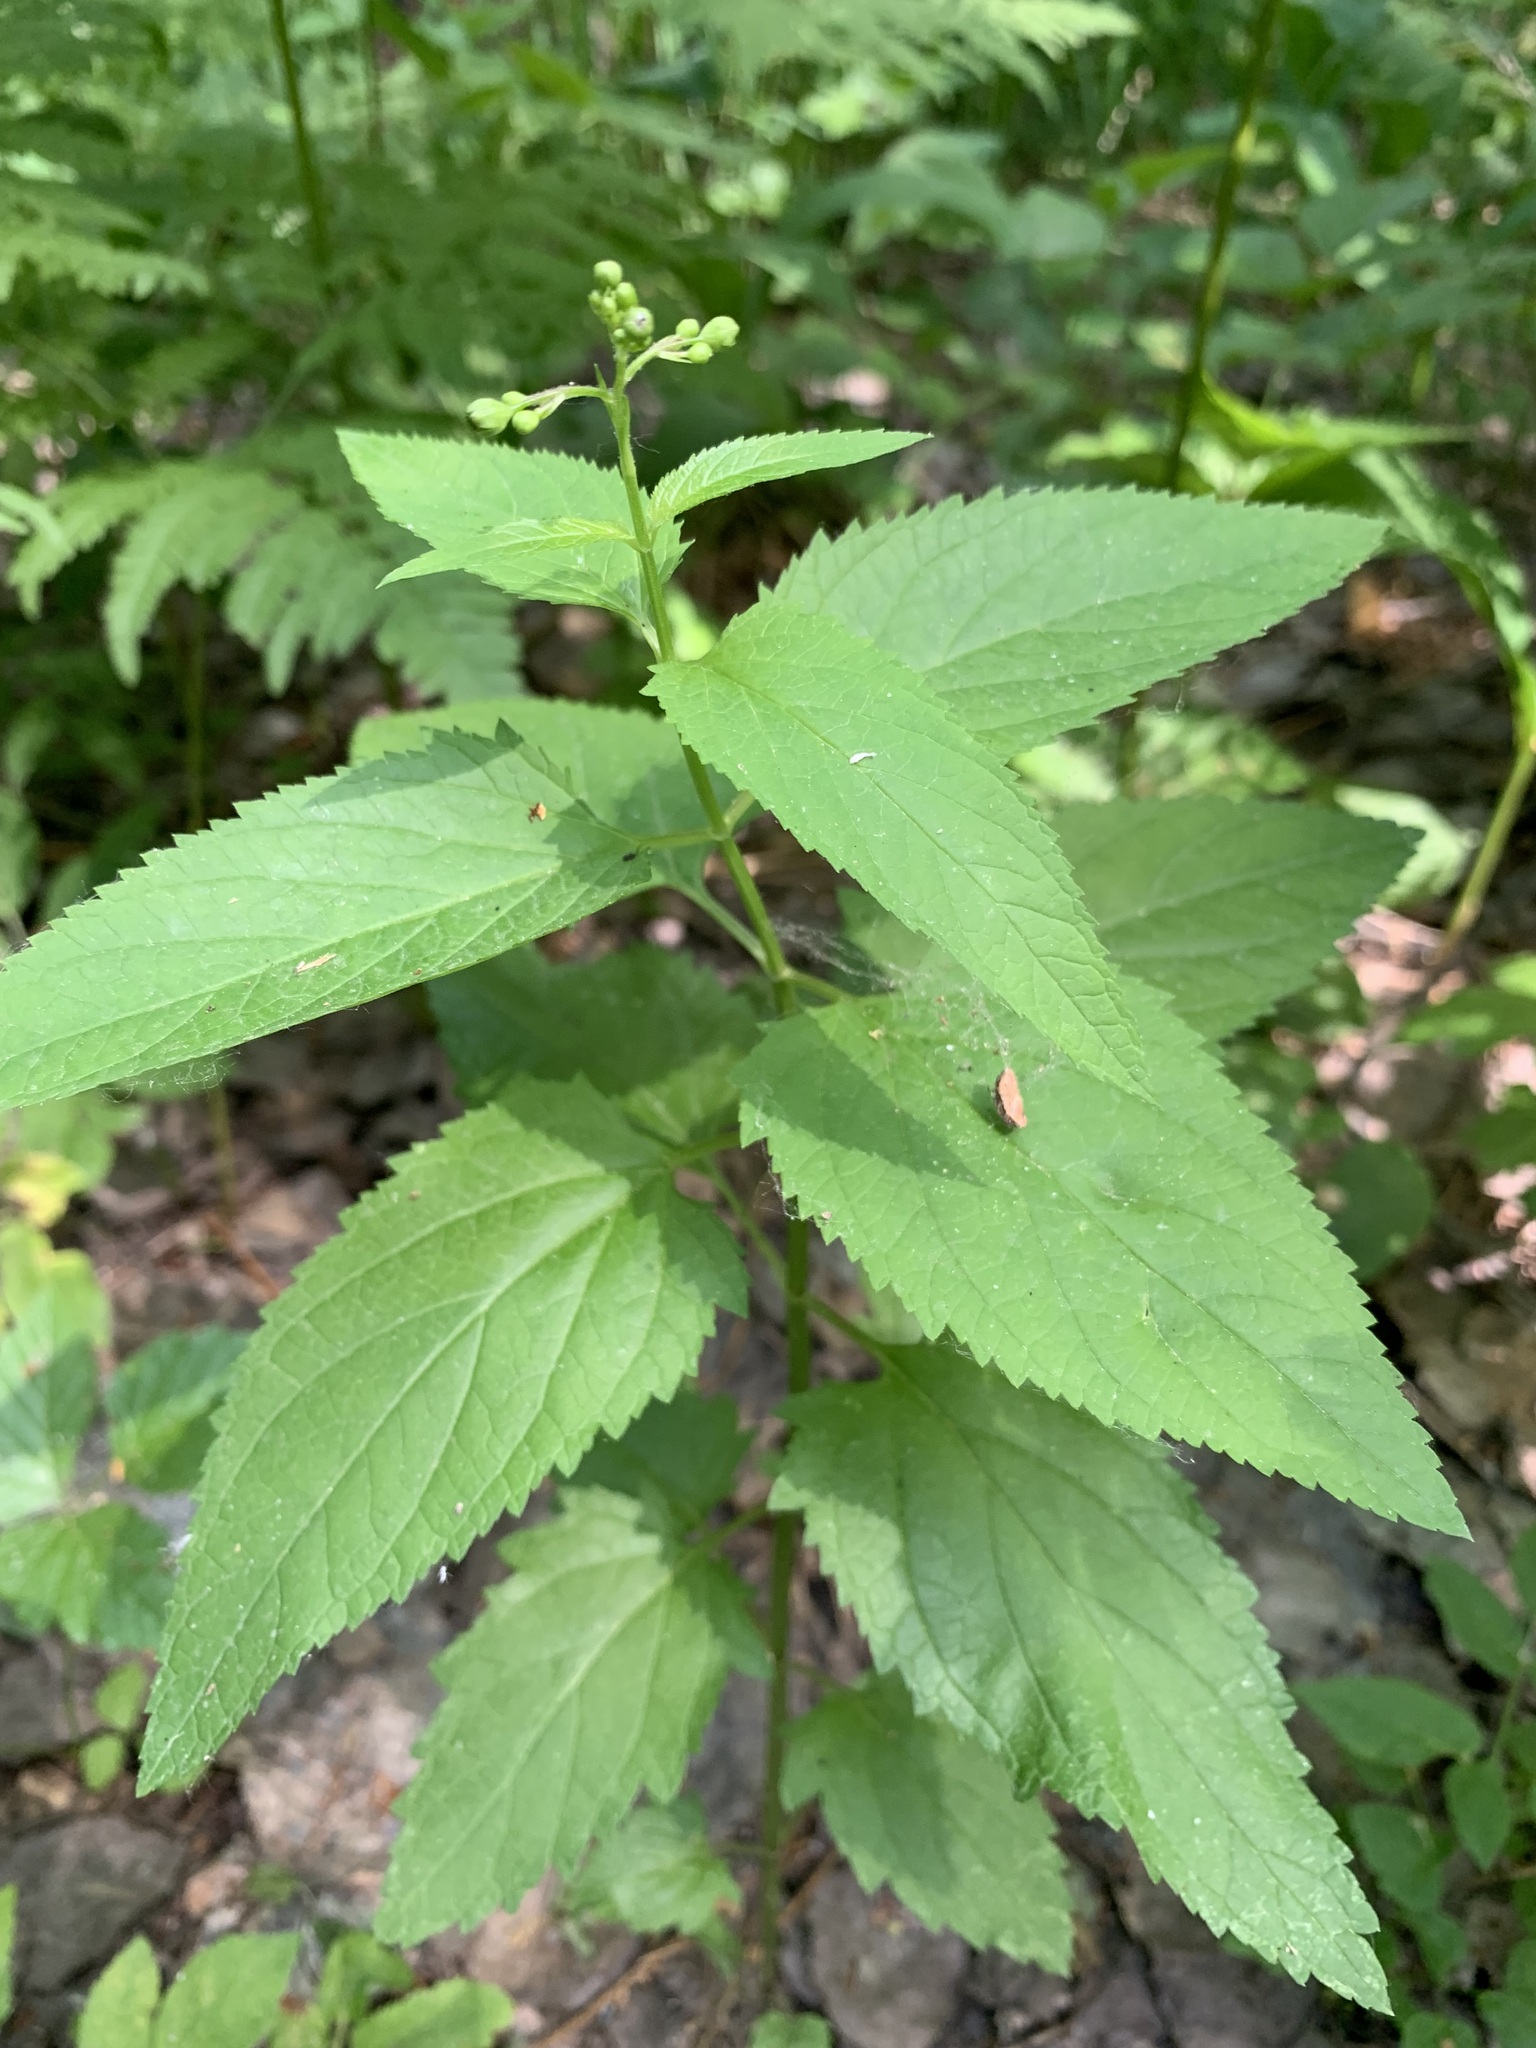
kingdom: Plantae
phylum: Tracheophyta
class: Magnoliopsida
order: Lamiales
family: Scrophulariaceae
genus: Scrophularia
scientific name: Scrophularia nodosa
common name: Common figwort
